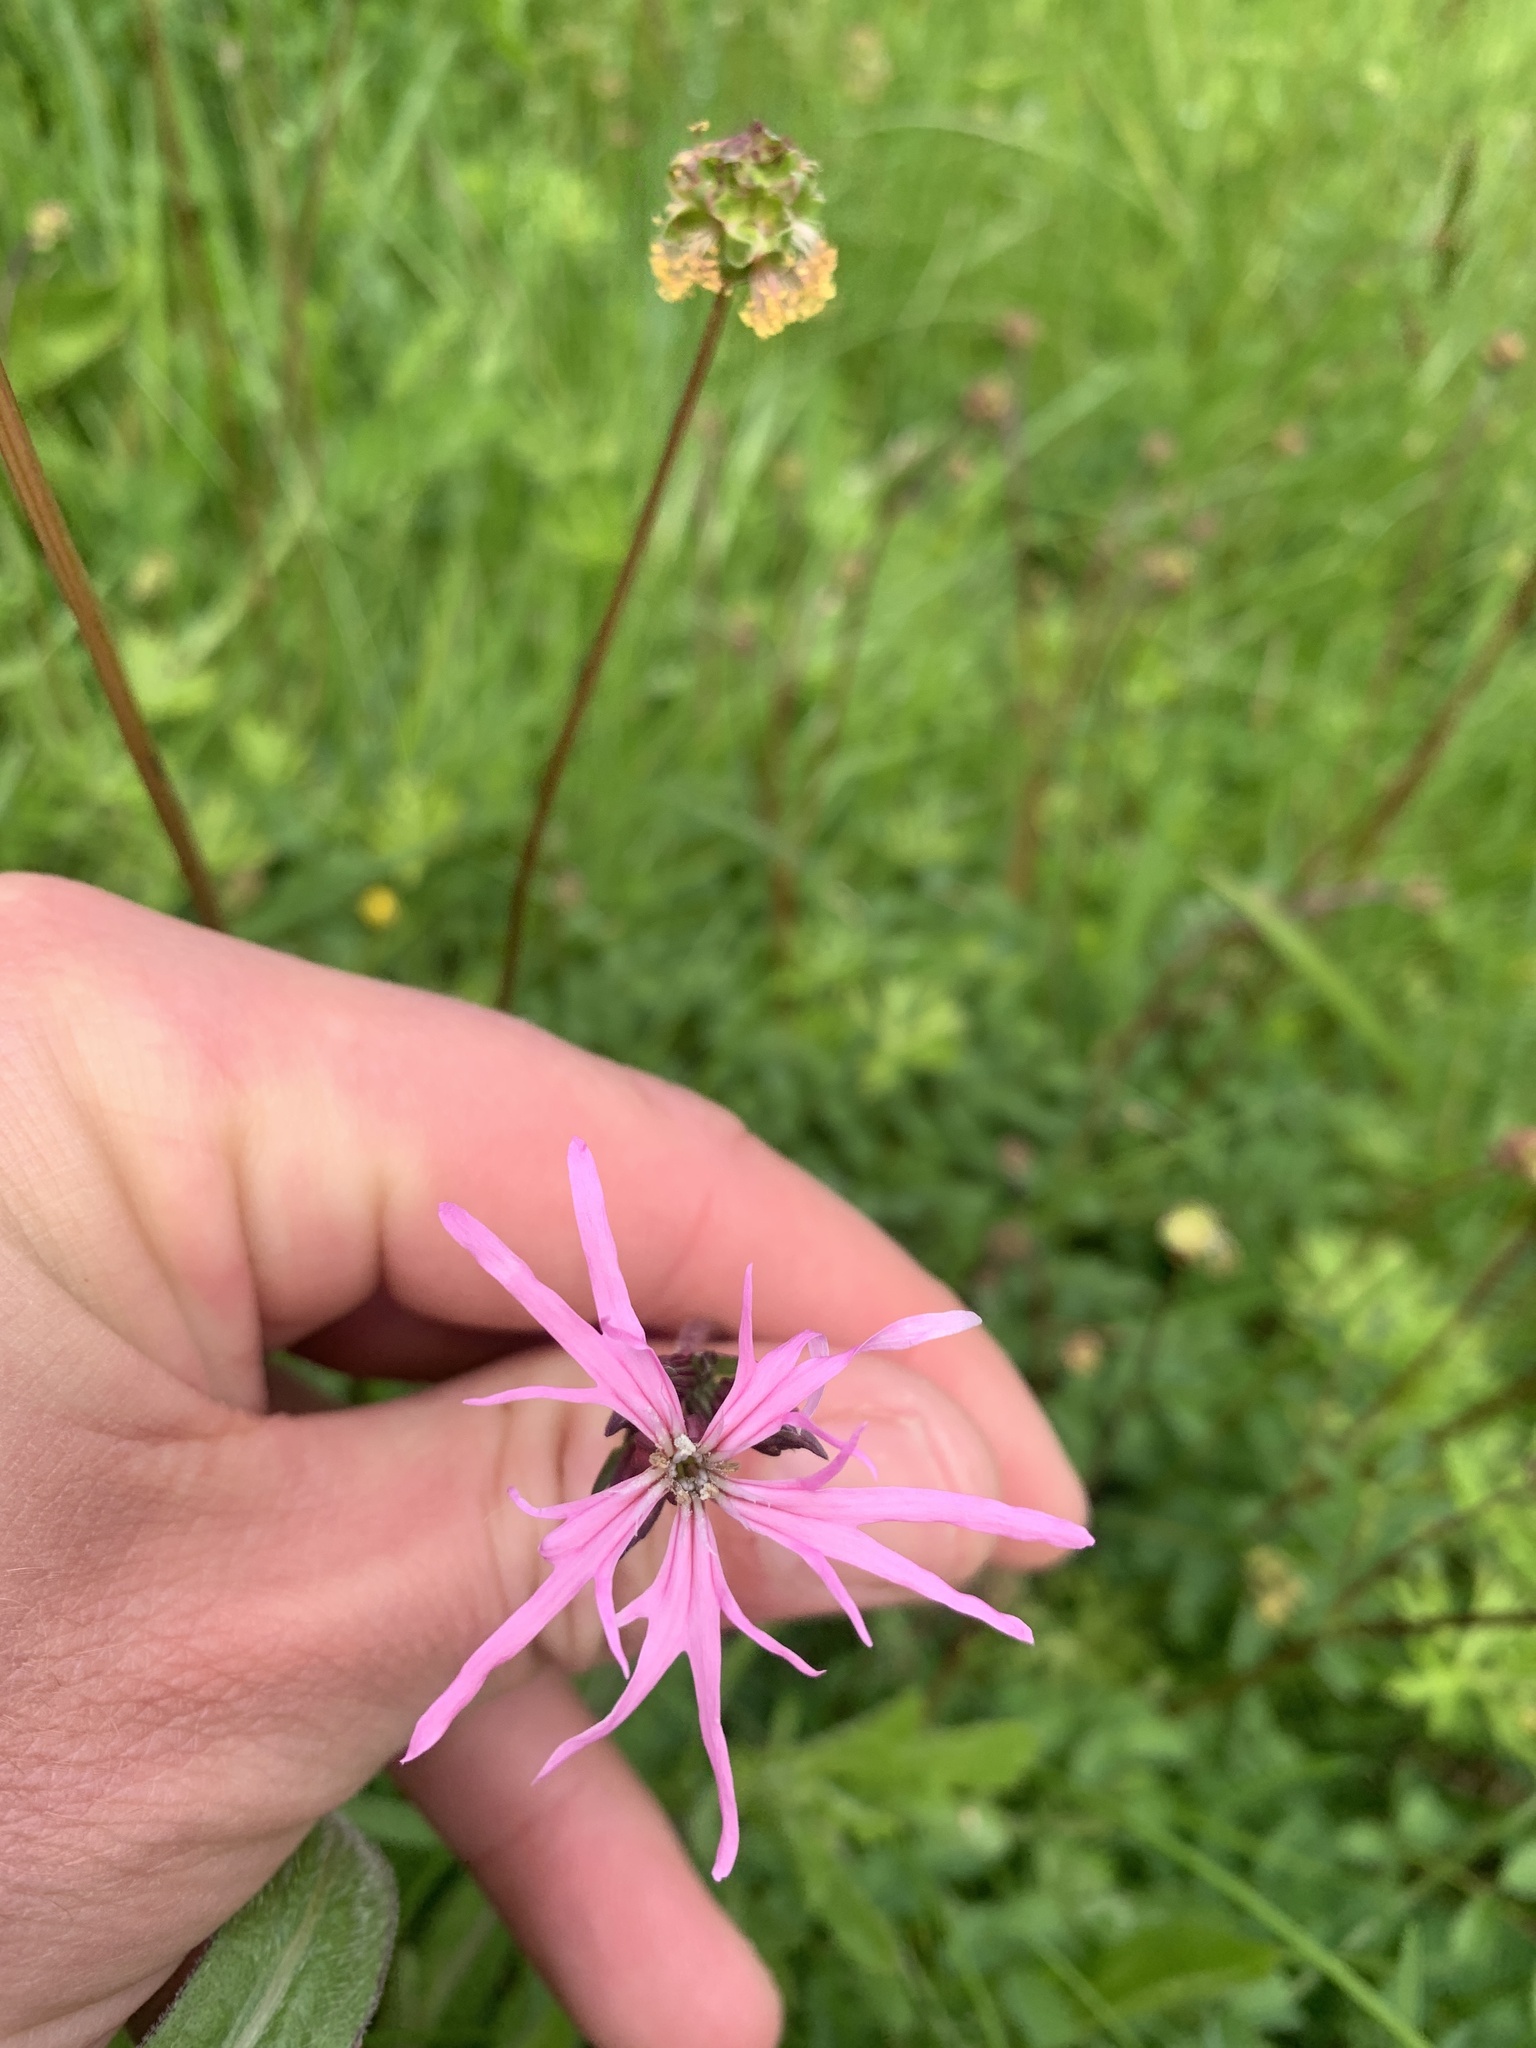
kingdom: Plantae
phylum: Tracheophyta
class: Magnoliopsida
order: Caryophyllales
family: Caryophyllaceae
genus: Silene
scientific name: Silene flos-cuculi
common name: Ragged-robin
